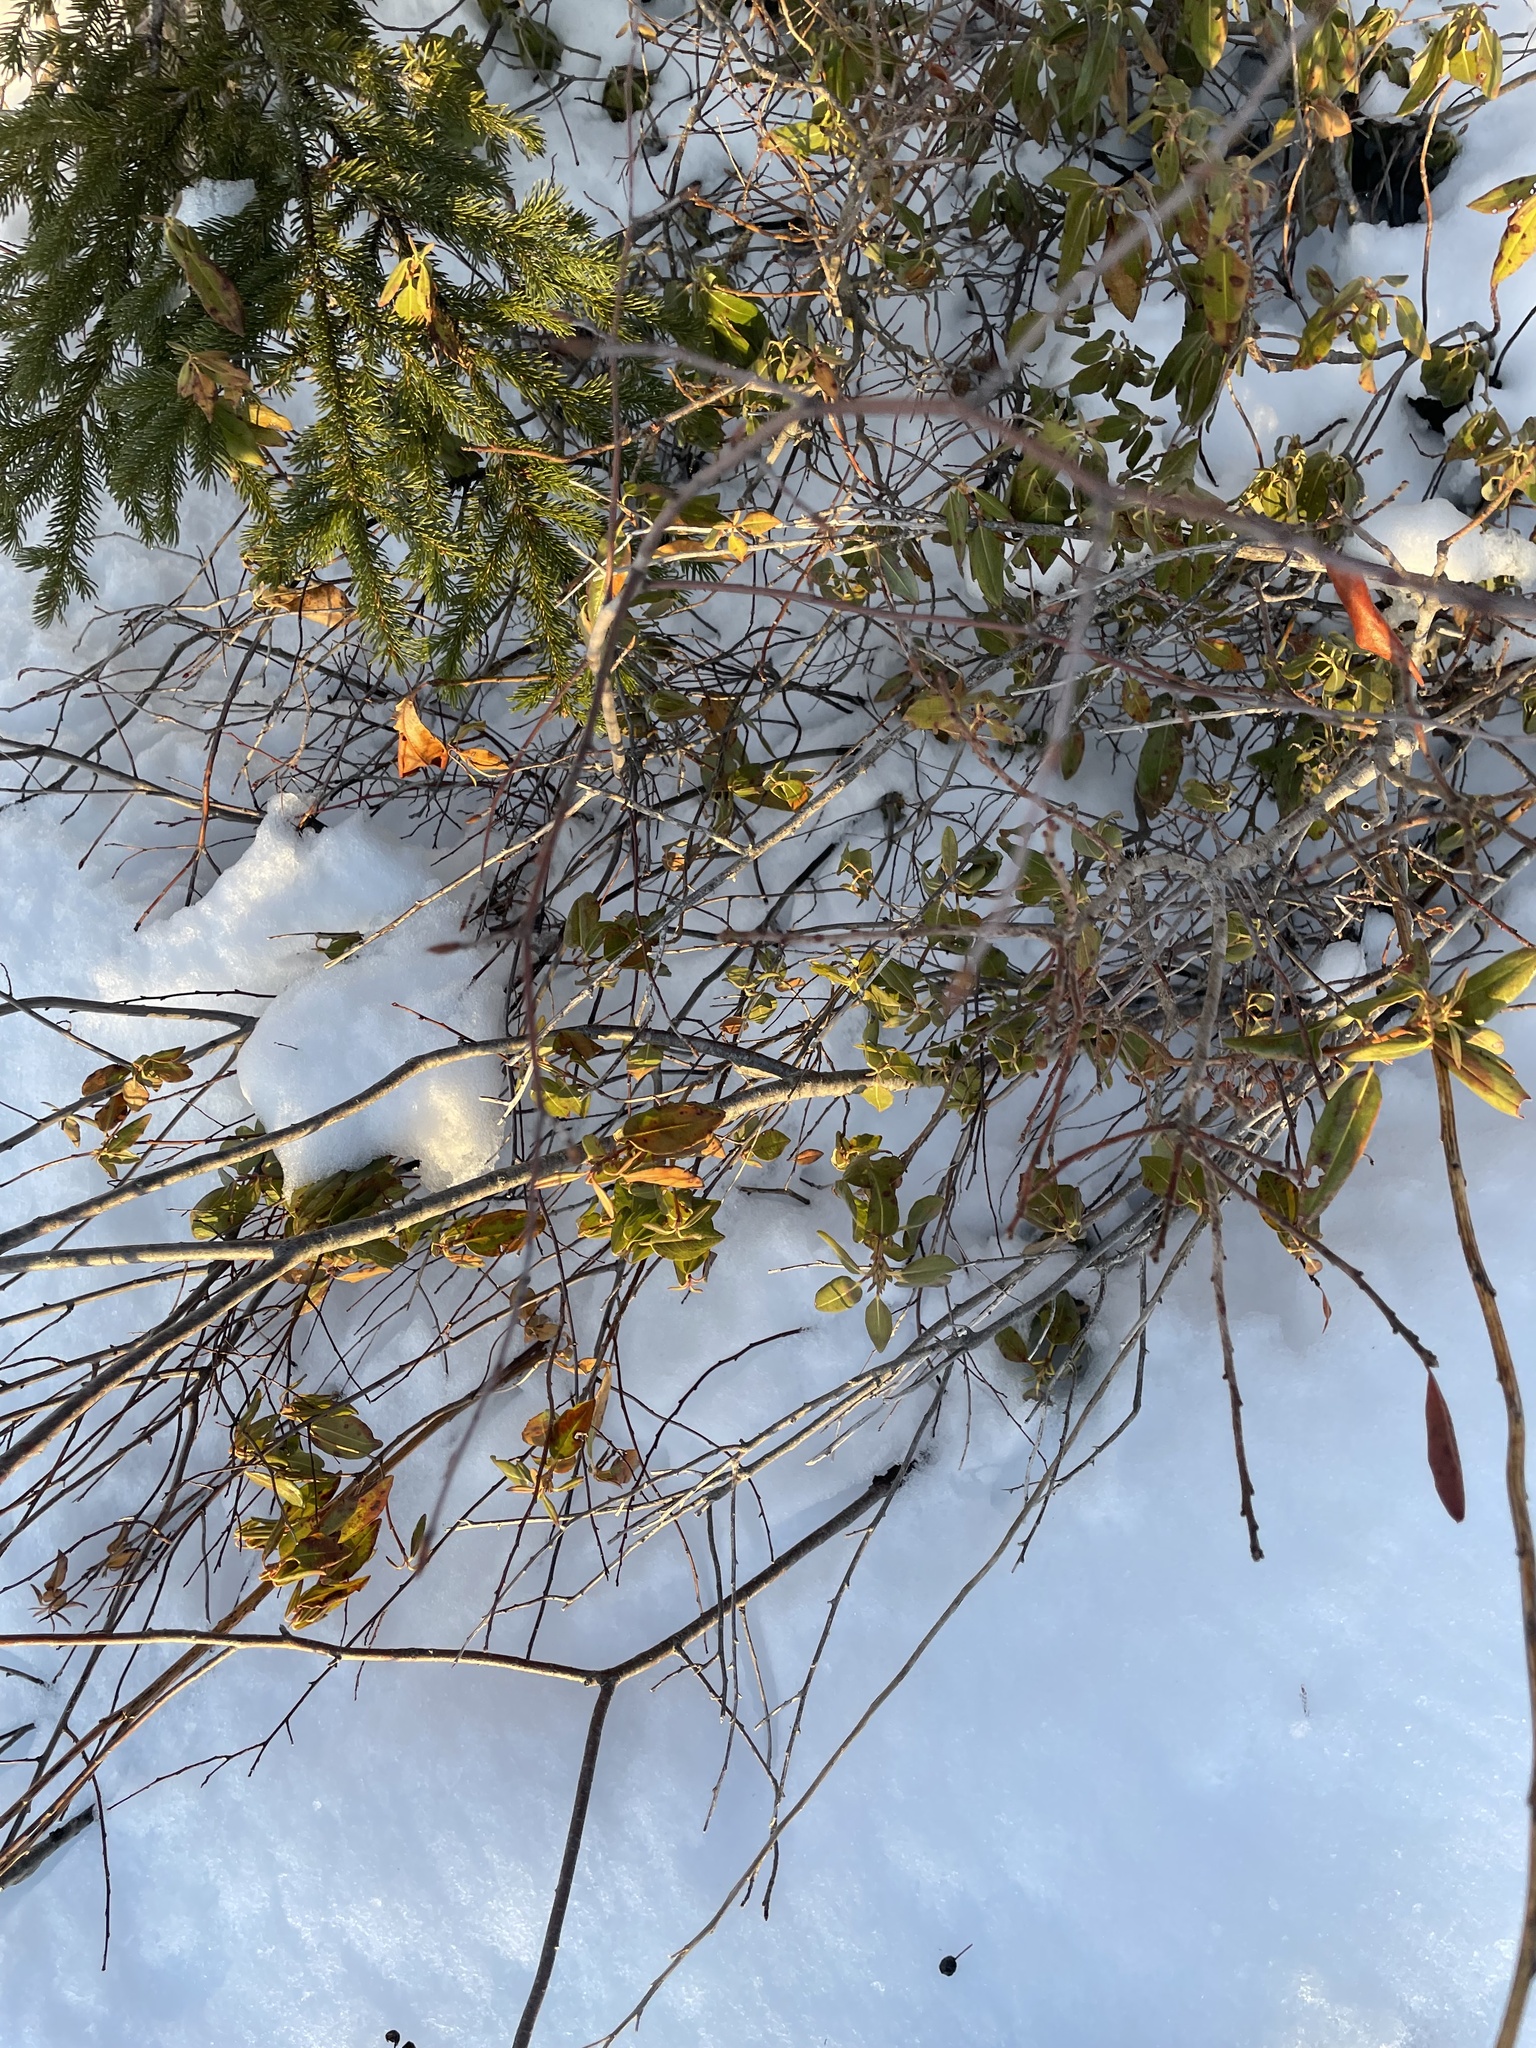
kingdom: Plantae
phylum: Tracheophyta
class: Magnoliopsida
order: Ericales
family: Ericaceae
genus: Kalmia
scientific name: Kalmia angustifolia
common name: Sheep-laurel
